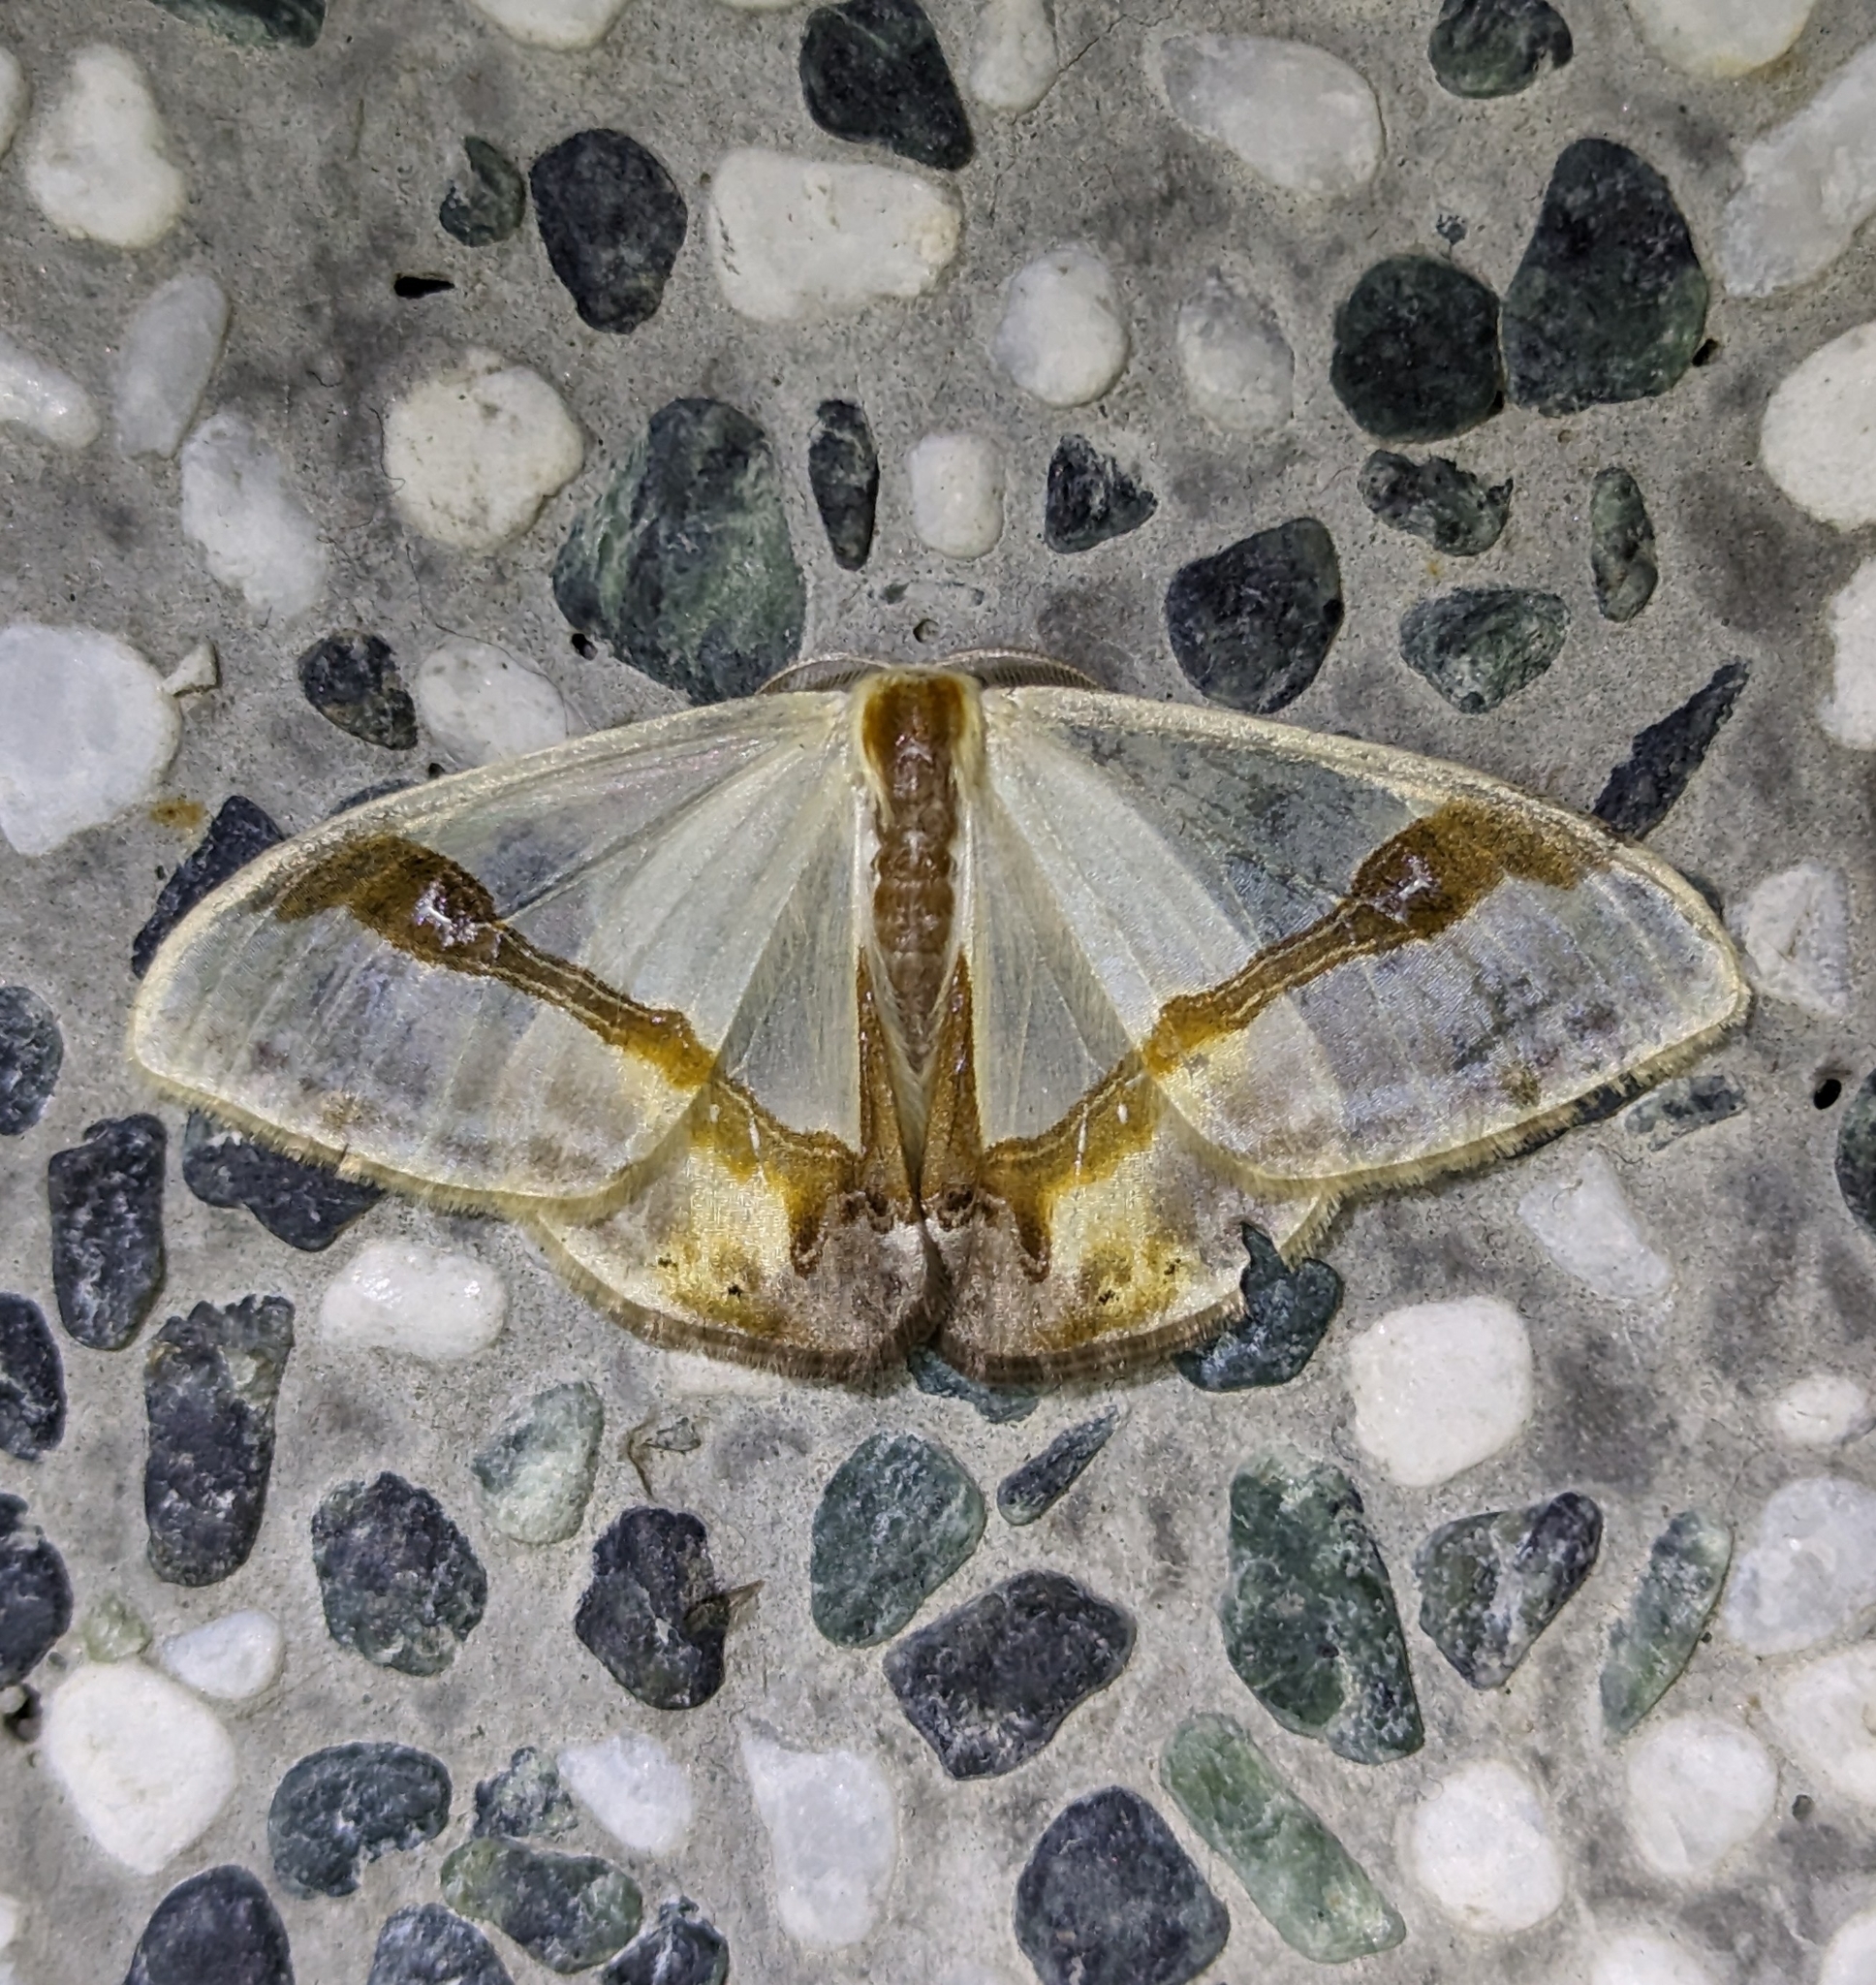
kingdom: Animalia
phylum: Arthropoda
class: Insecta
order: Lepidoptera
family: Drepanidae
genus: Macrocilix
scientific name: Macrocilix mysticata
